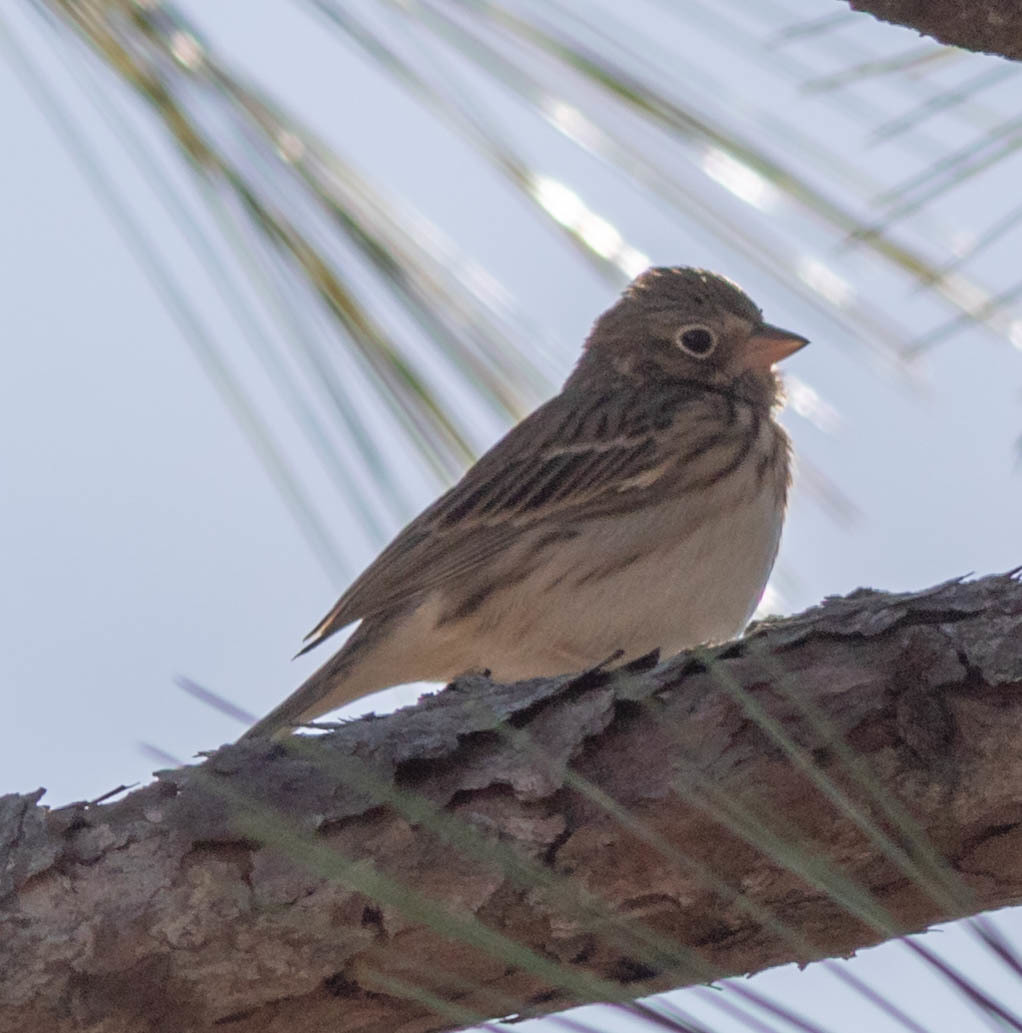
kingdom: Animalia
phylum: Chordata
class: Aves
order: Passeriformes
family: Passerellidae
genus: Pooecetes
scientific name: Pooecetes gramineus
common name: Vesper sparrow
